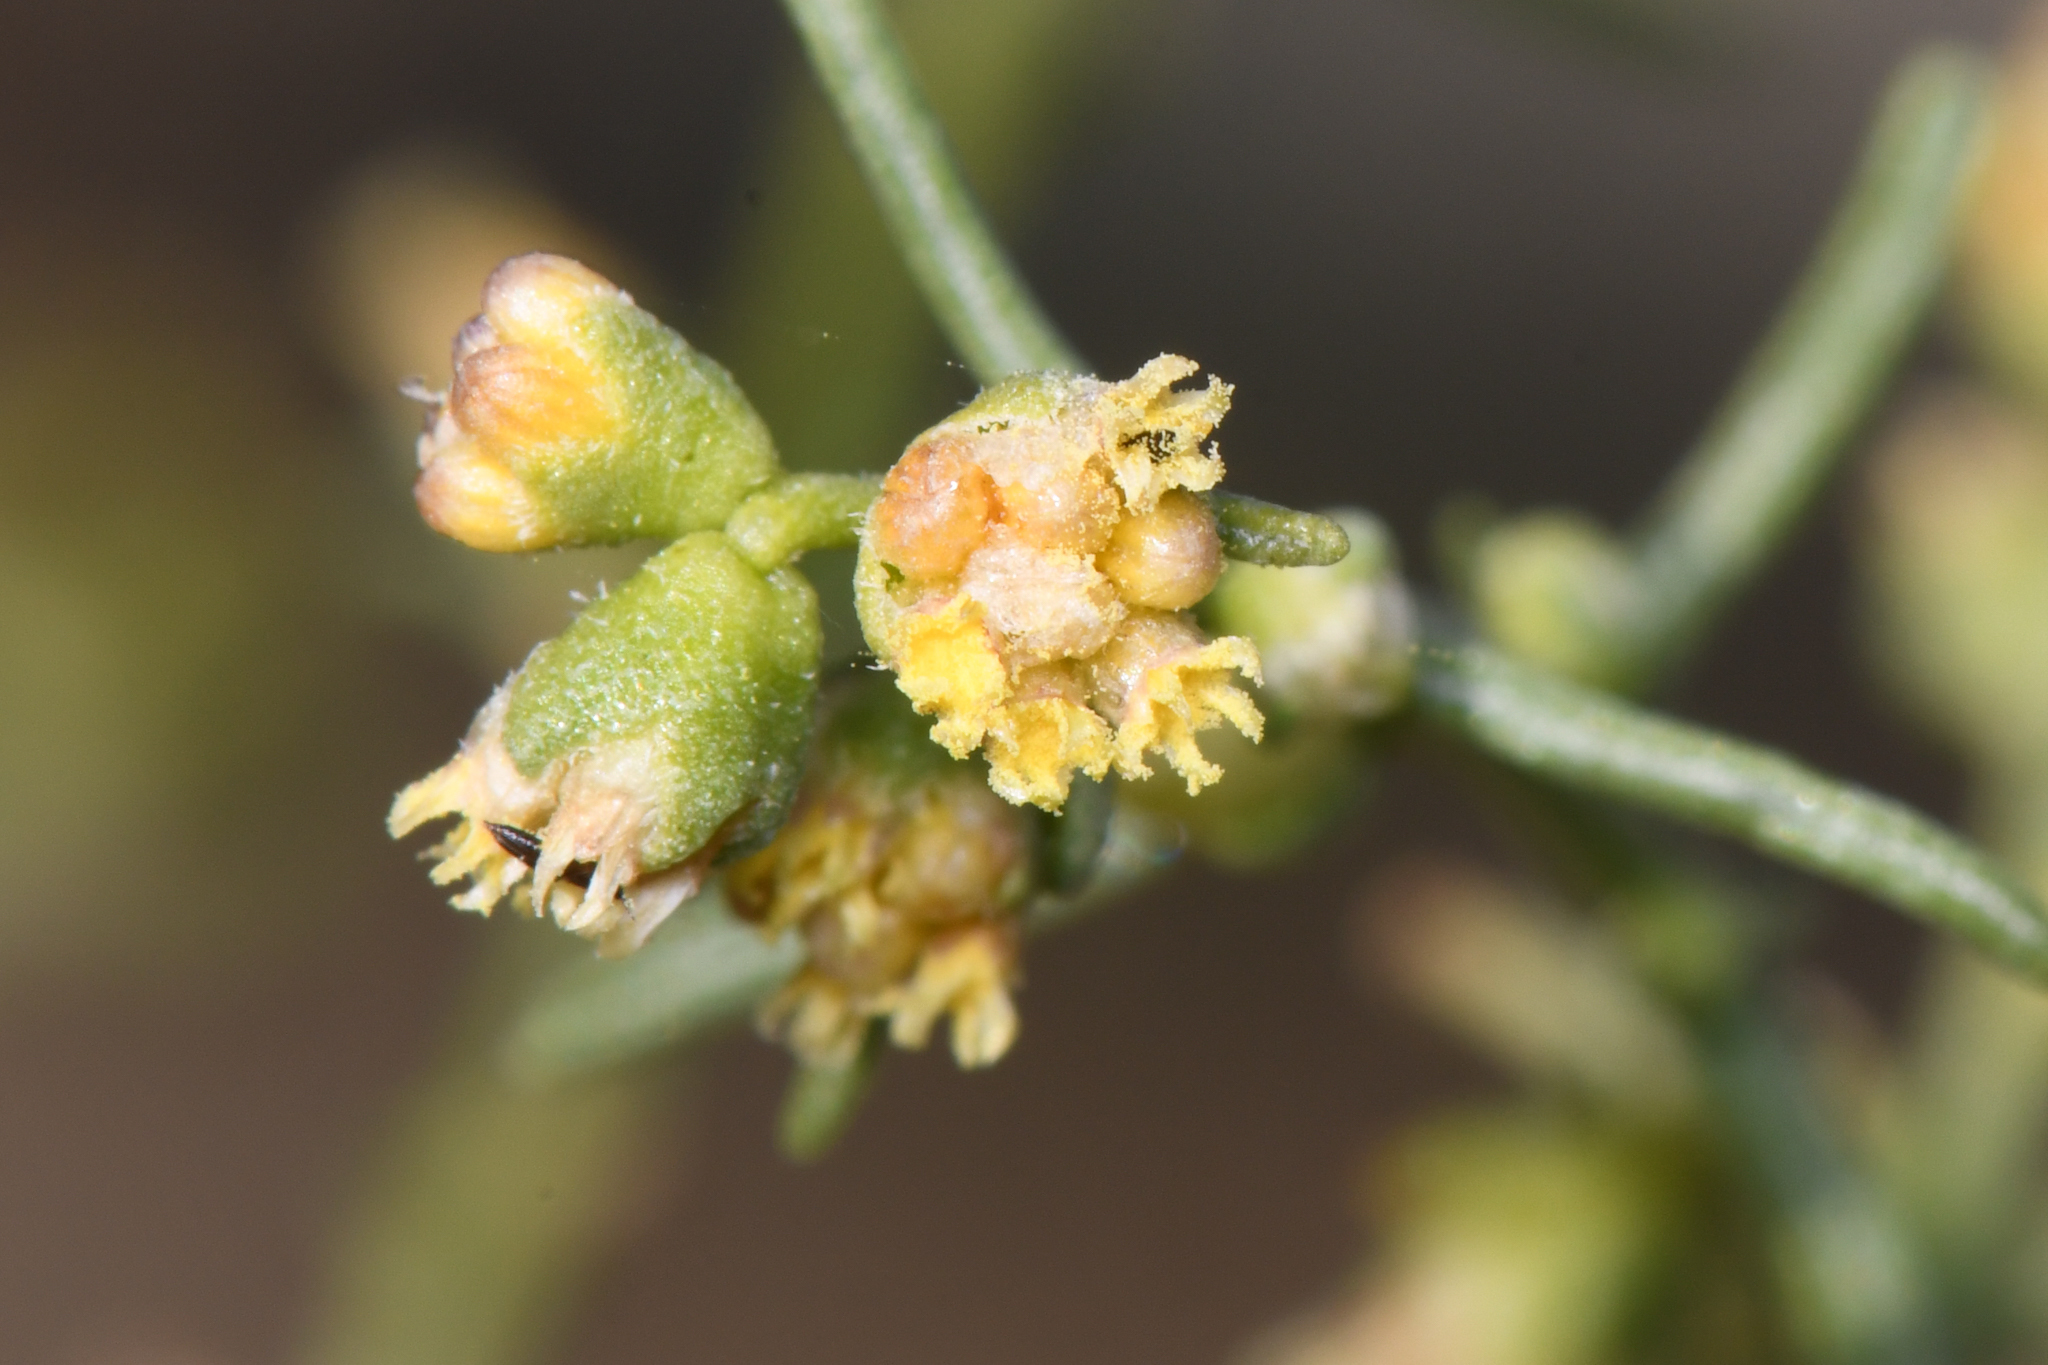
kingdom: Plantae
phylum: Tracheophyta
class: Magnoliopsida
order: Asterales
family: Asteraceae
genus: Ambrosia
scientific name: Ambrosia salsola
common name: Burrobrush
